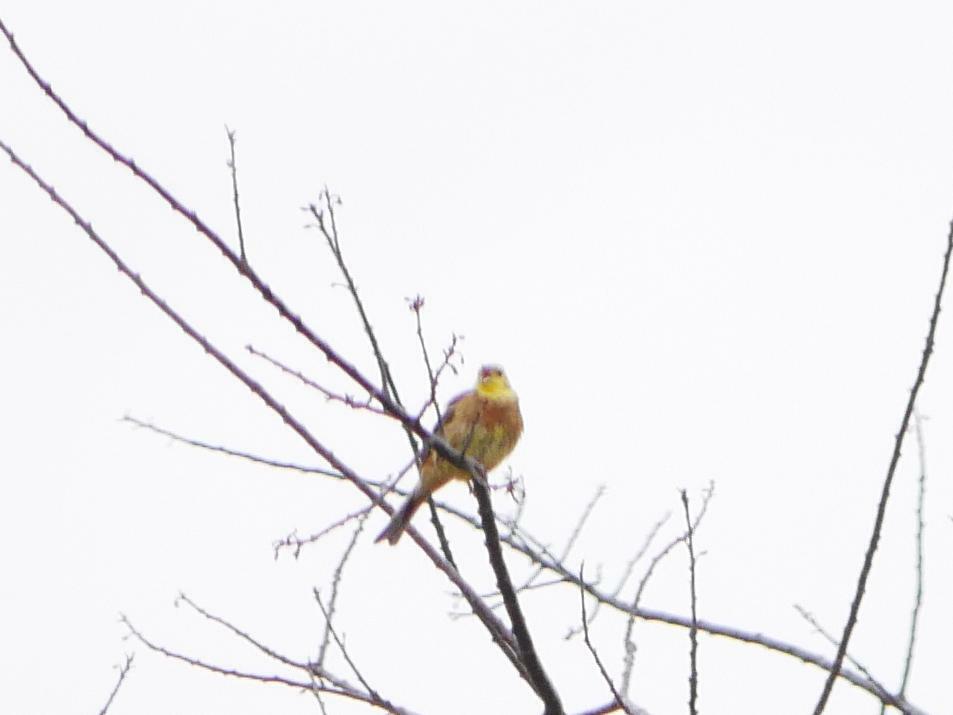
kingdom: Animalia
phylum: Chordata
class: Aves
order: Passeriformes
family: Emberizidae
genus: Emberiza
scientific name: Emberiza citrinella
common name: Yellowhammer
